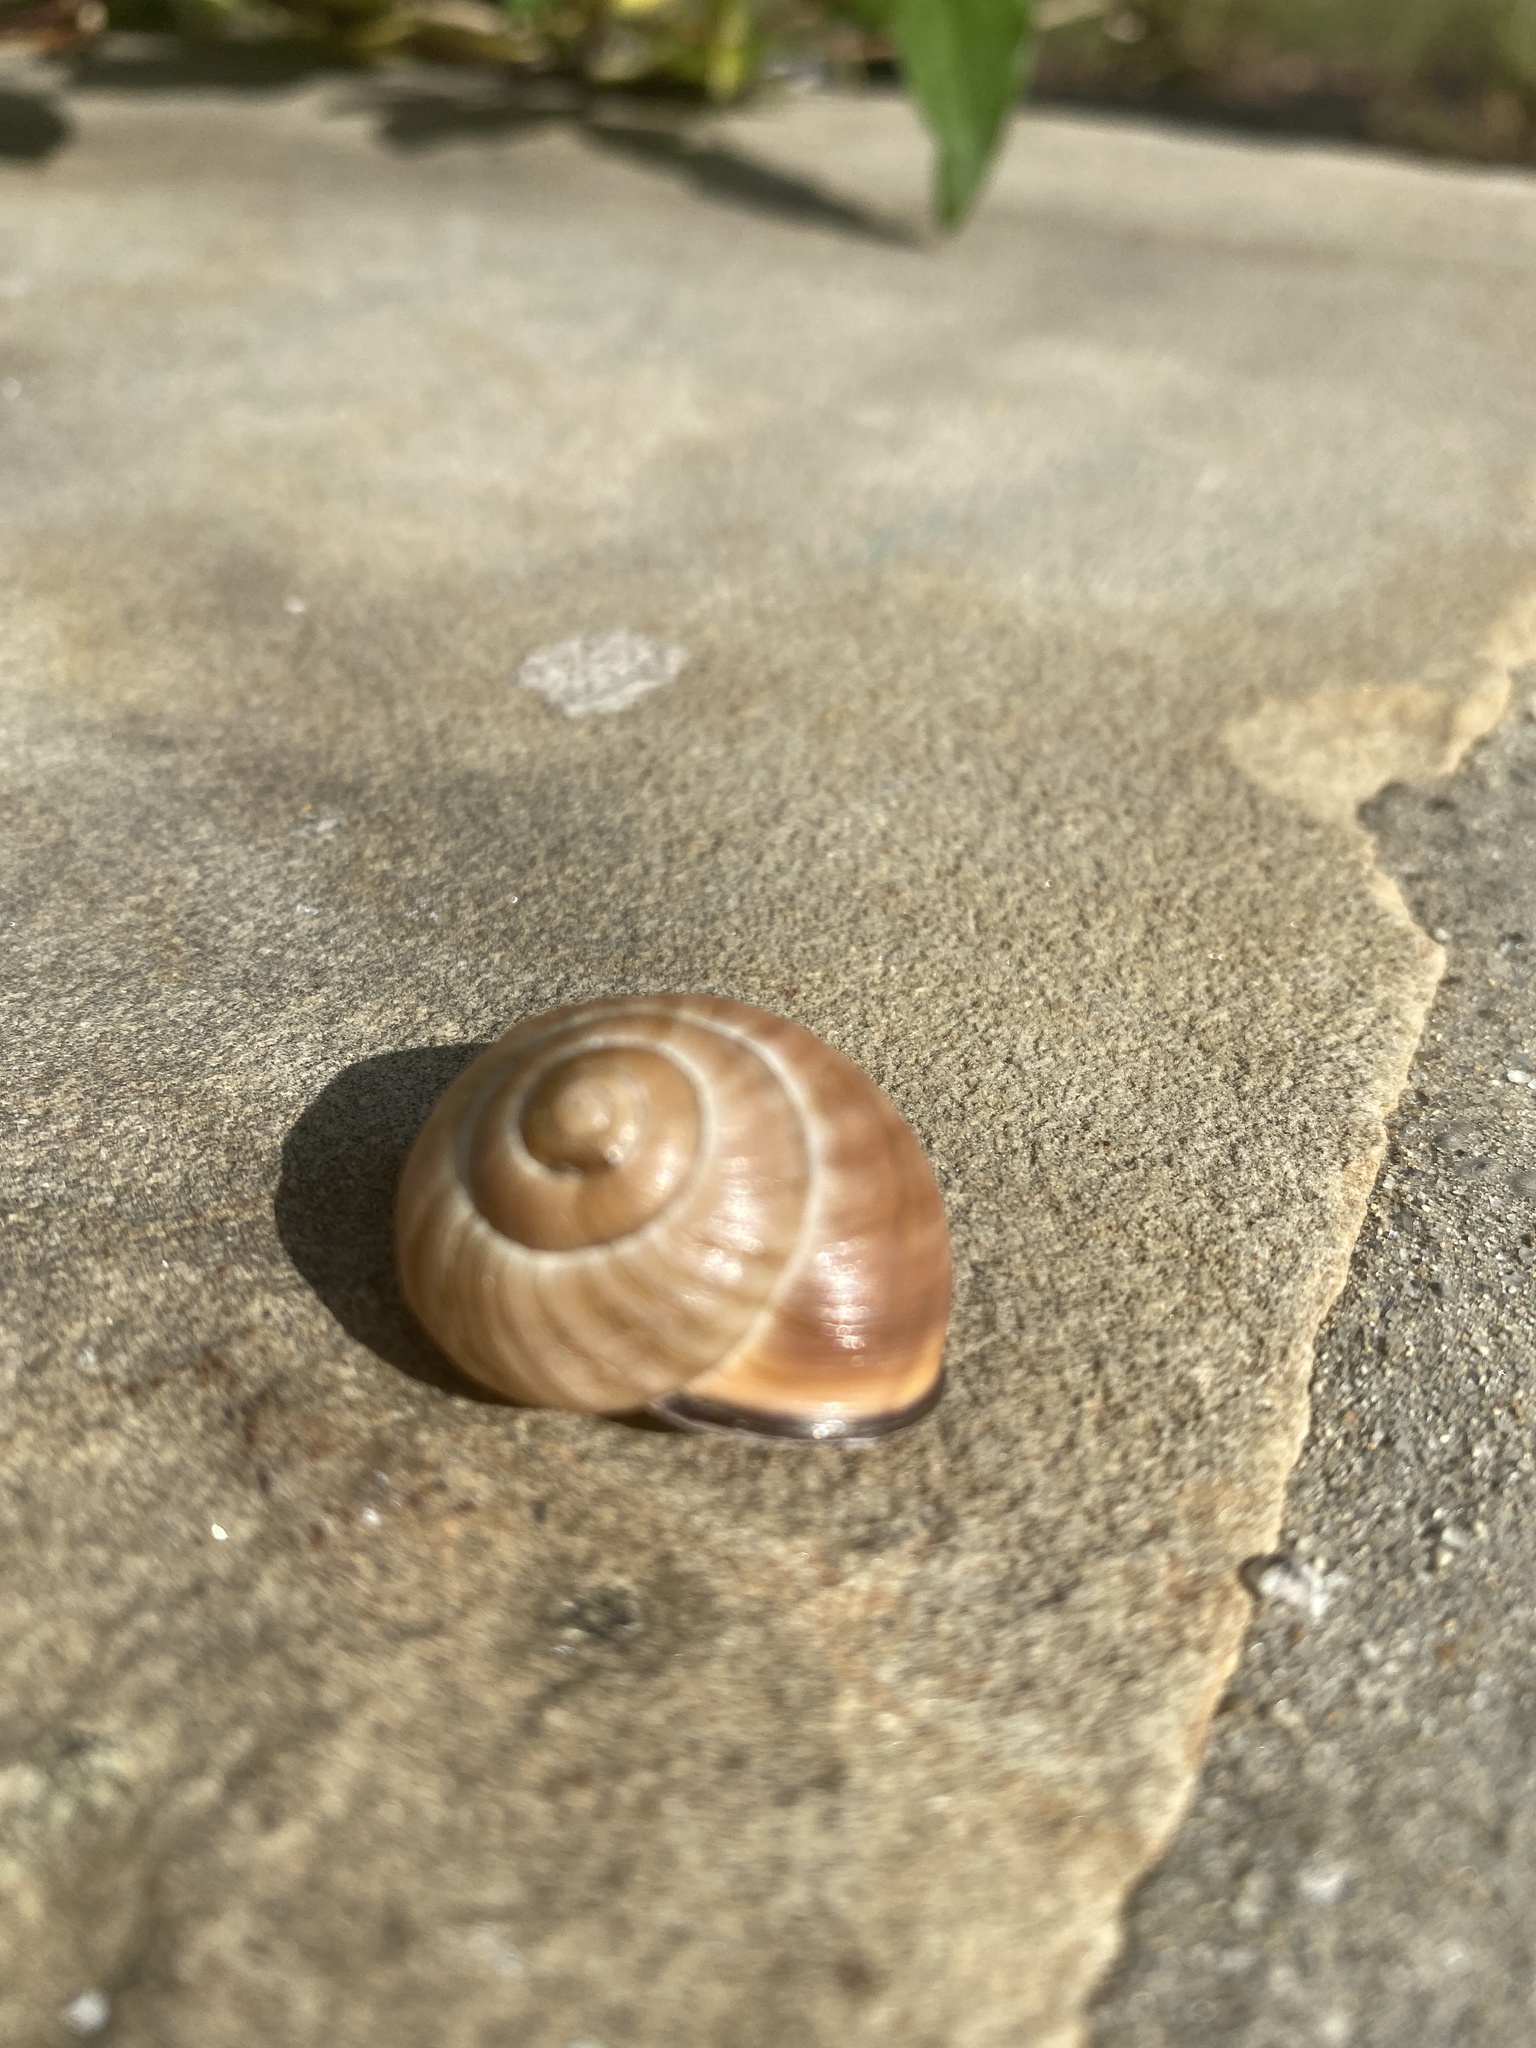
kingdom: Animalia
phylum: Mollusca
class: Gastropoda
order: Stylommatophora
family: Helicidae
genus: Cepaea
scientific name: Cepaea nemoralis
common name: Grovesnail
